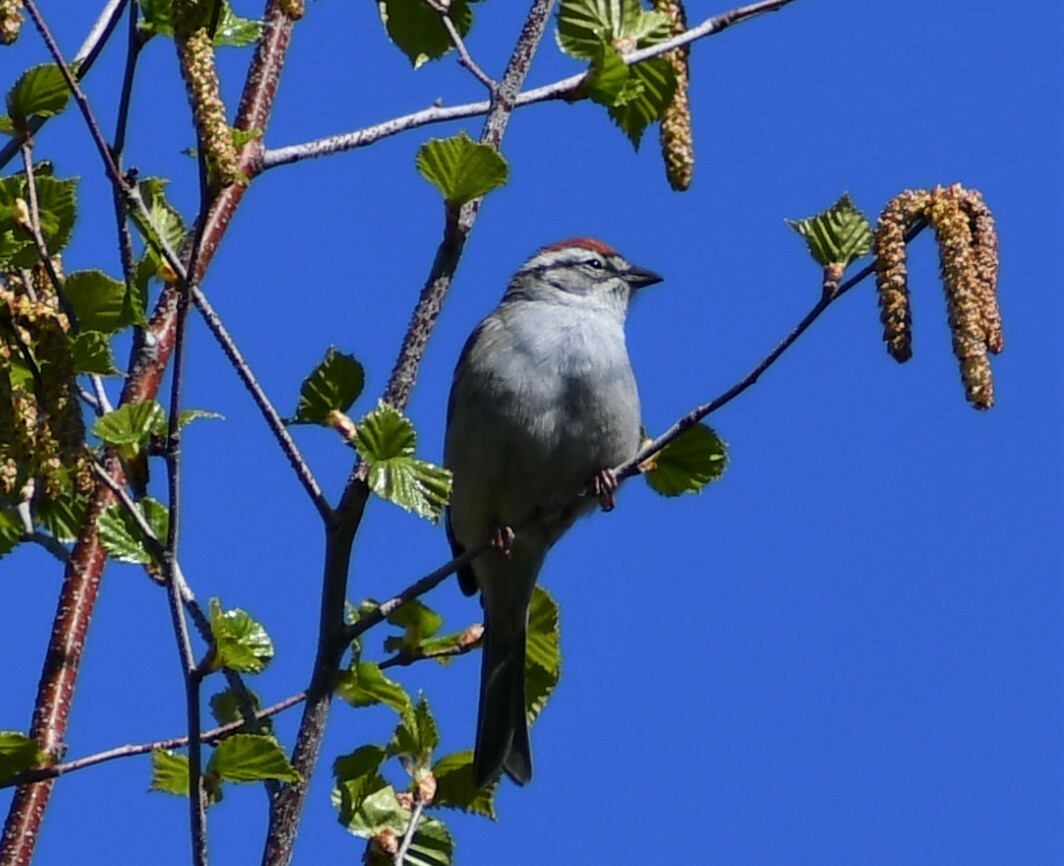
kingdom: Animalia
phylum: Chordata
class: Aves
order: Passeriformes
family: Passerellidae
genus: Spizella
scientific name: Spizella passerina
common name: Chipping sparrow
